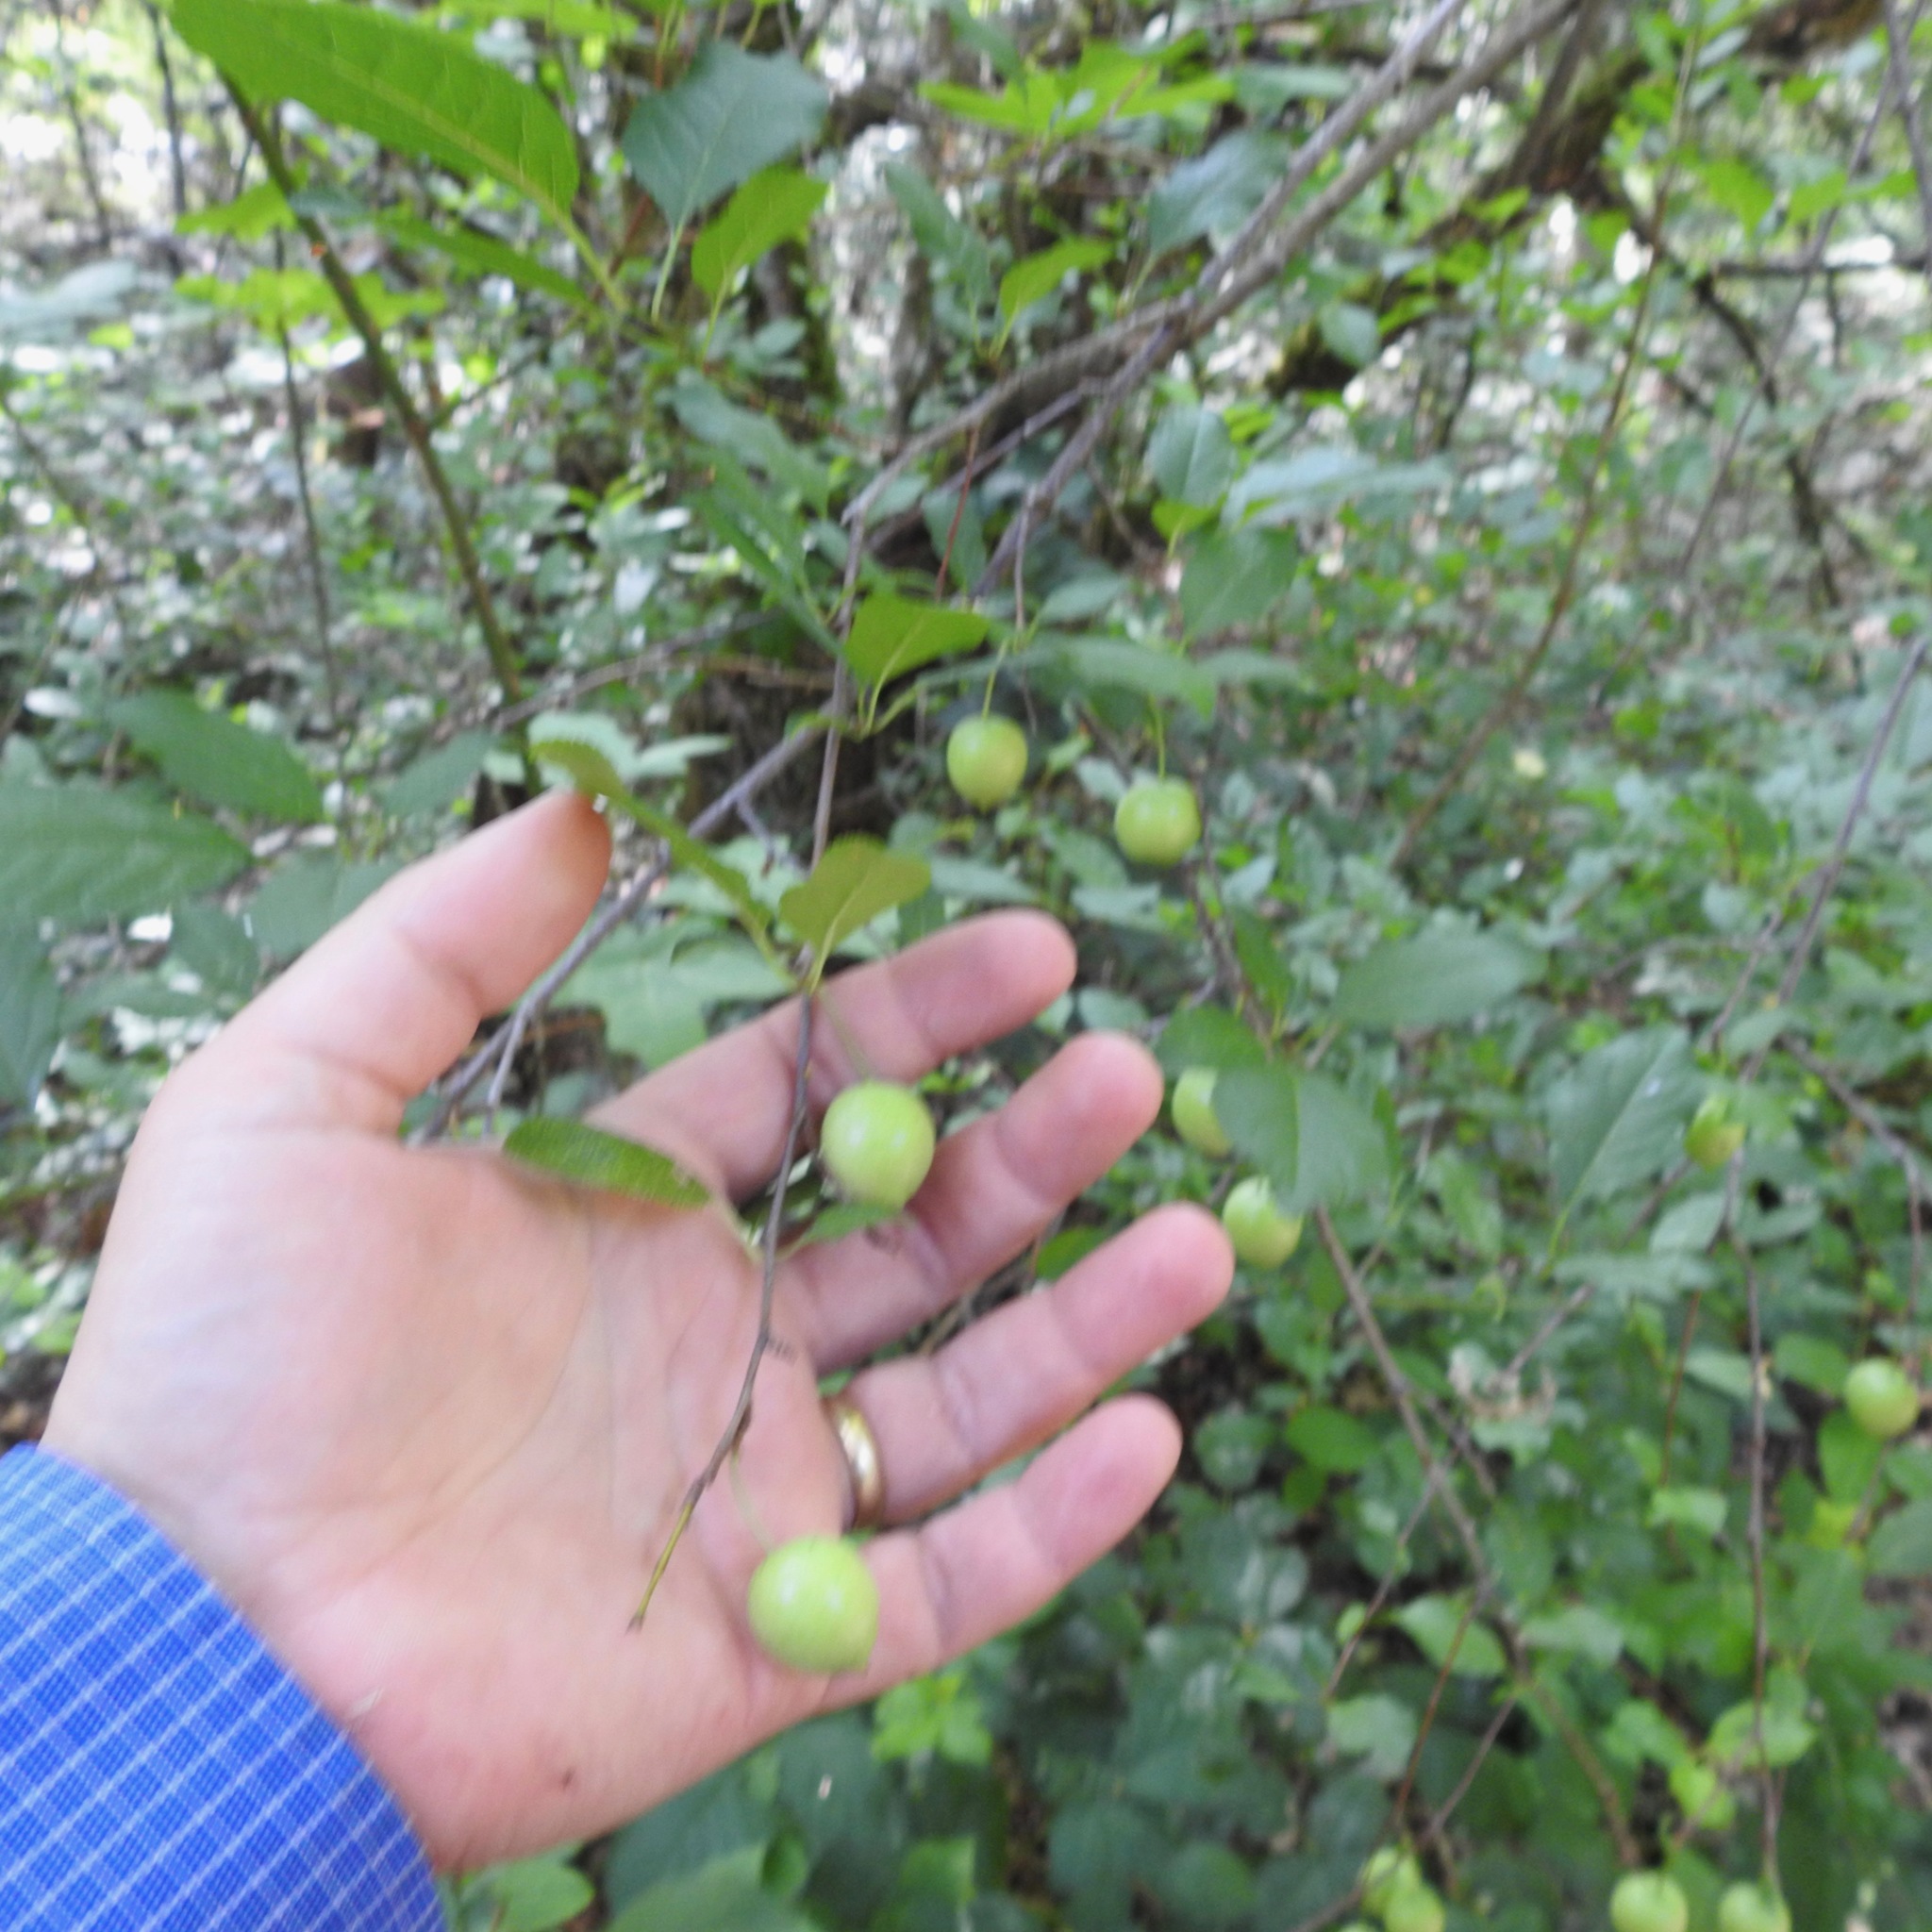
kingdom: Plantae
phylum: Tracheophyta
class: Magnoliopsida
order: Rosales
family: Rosaceae
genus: Prunus
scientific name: Prunus cerasifera
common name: Cherry plum
